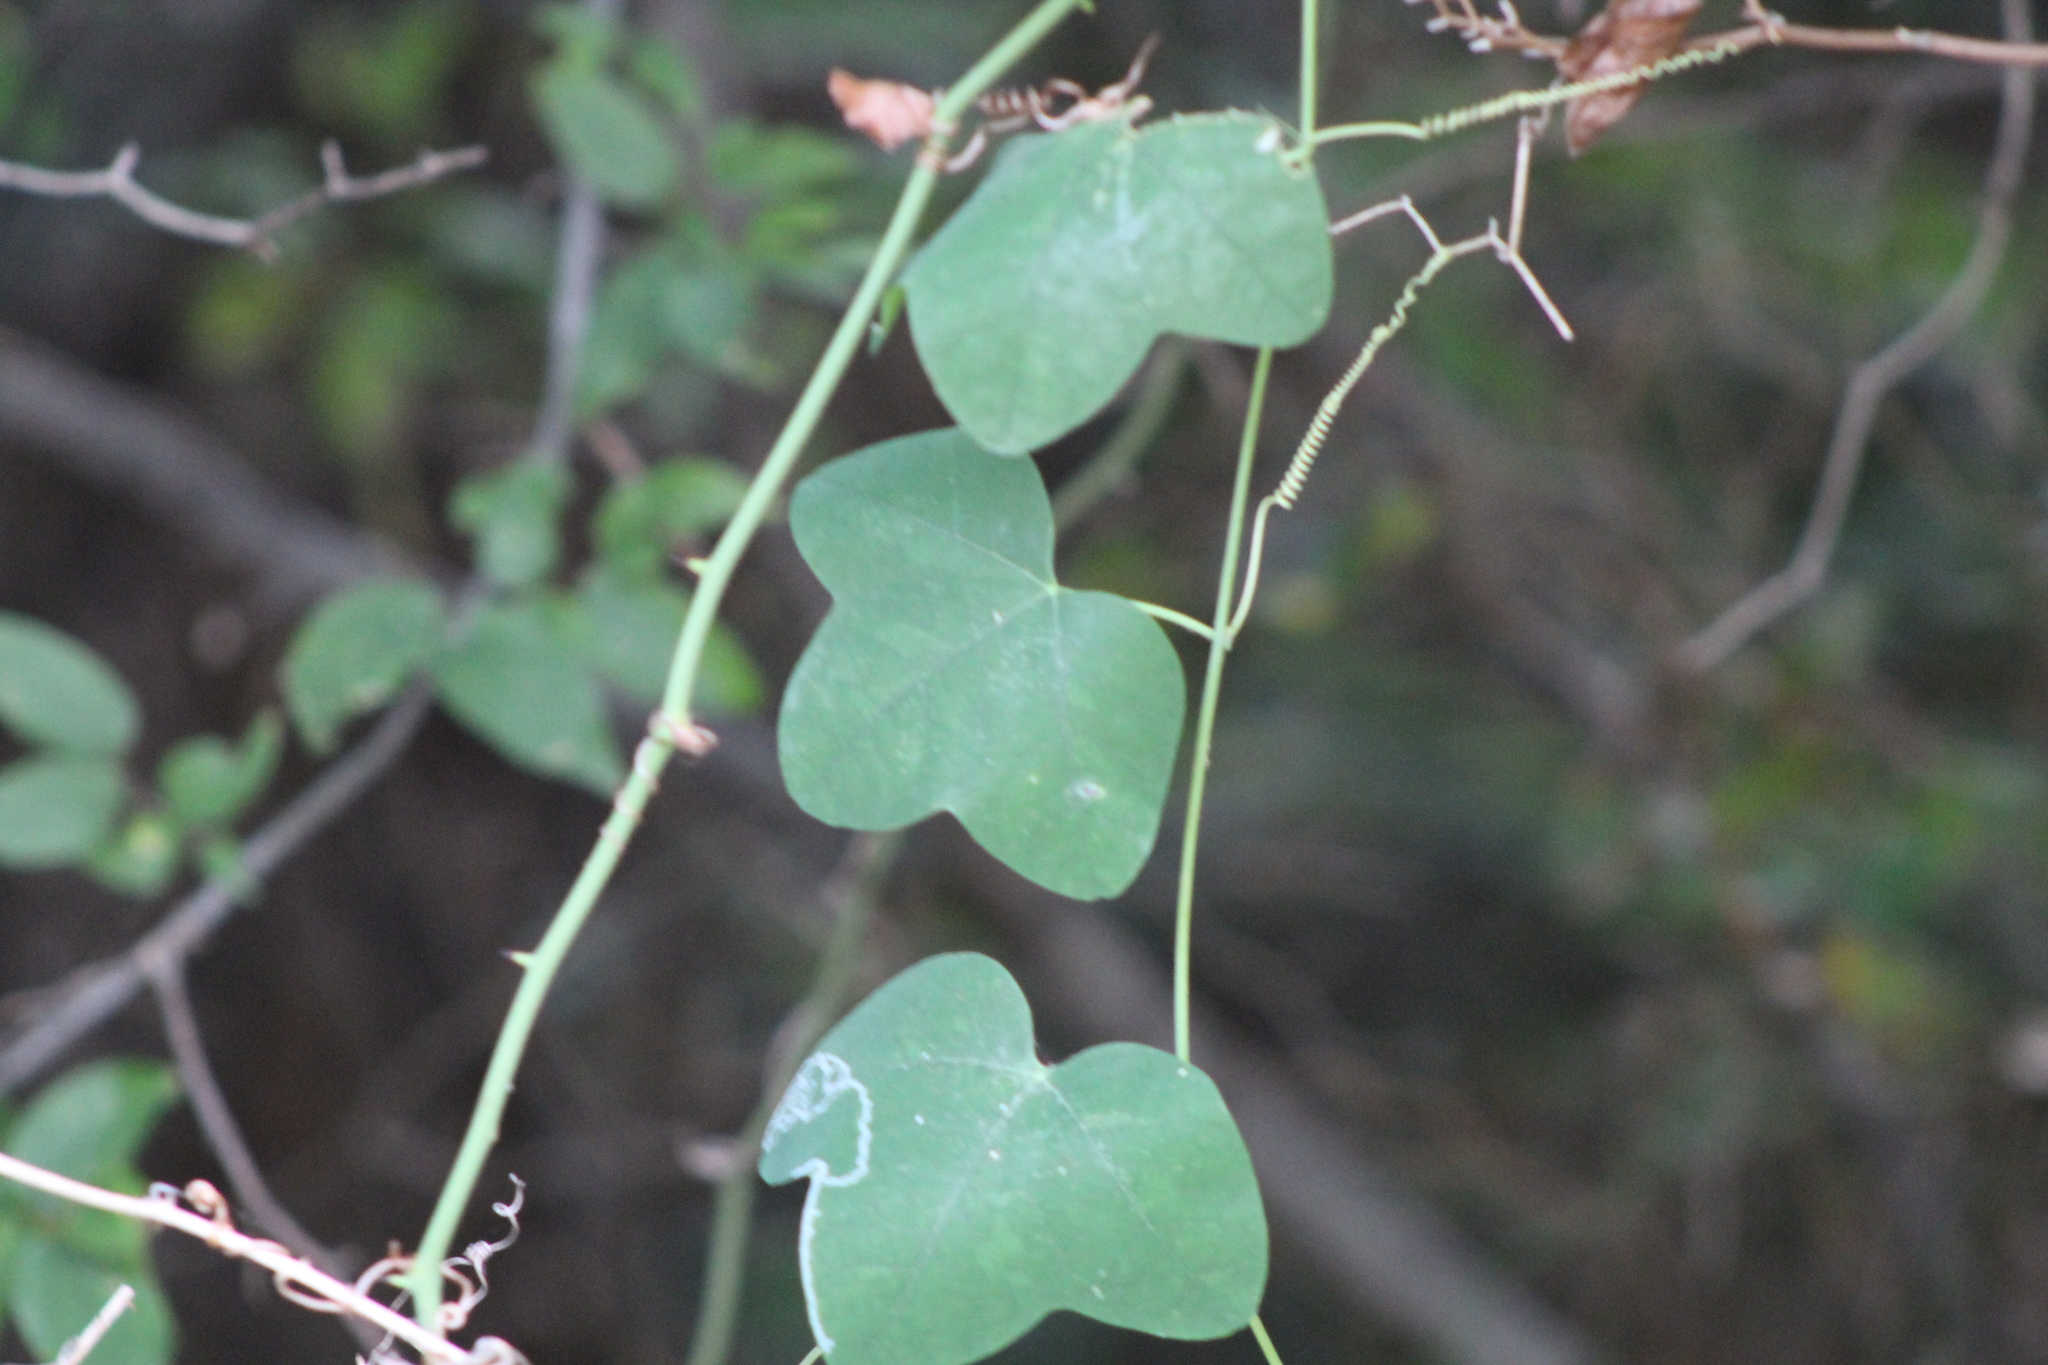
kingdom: Plantae
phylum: Tracheophyta
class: Magnoliopsida
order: Malpighiales
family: Passifloraceae
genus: Passiflora
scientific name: Passiflora lutea
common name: Yellow passionflower
